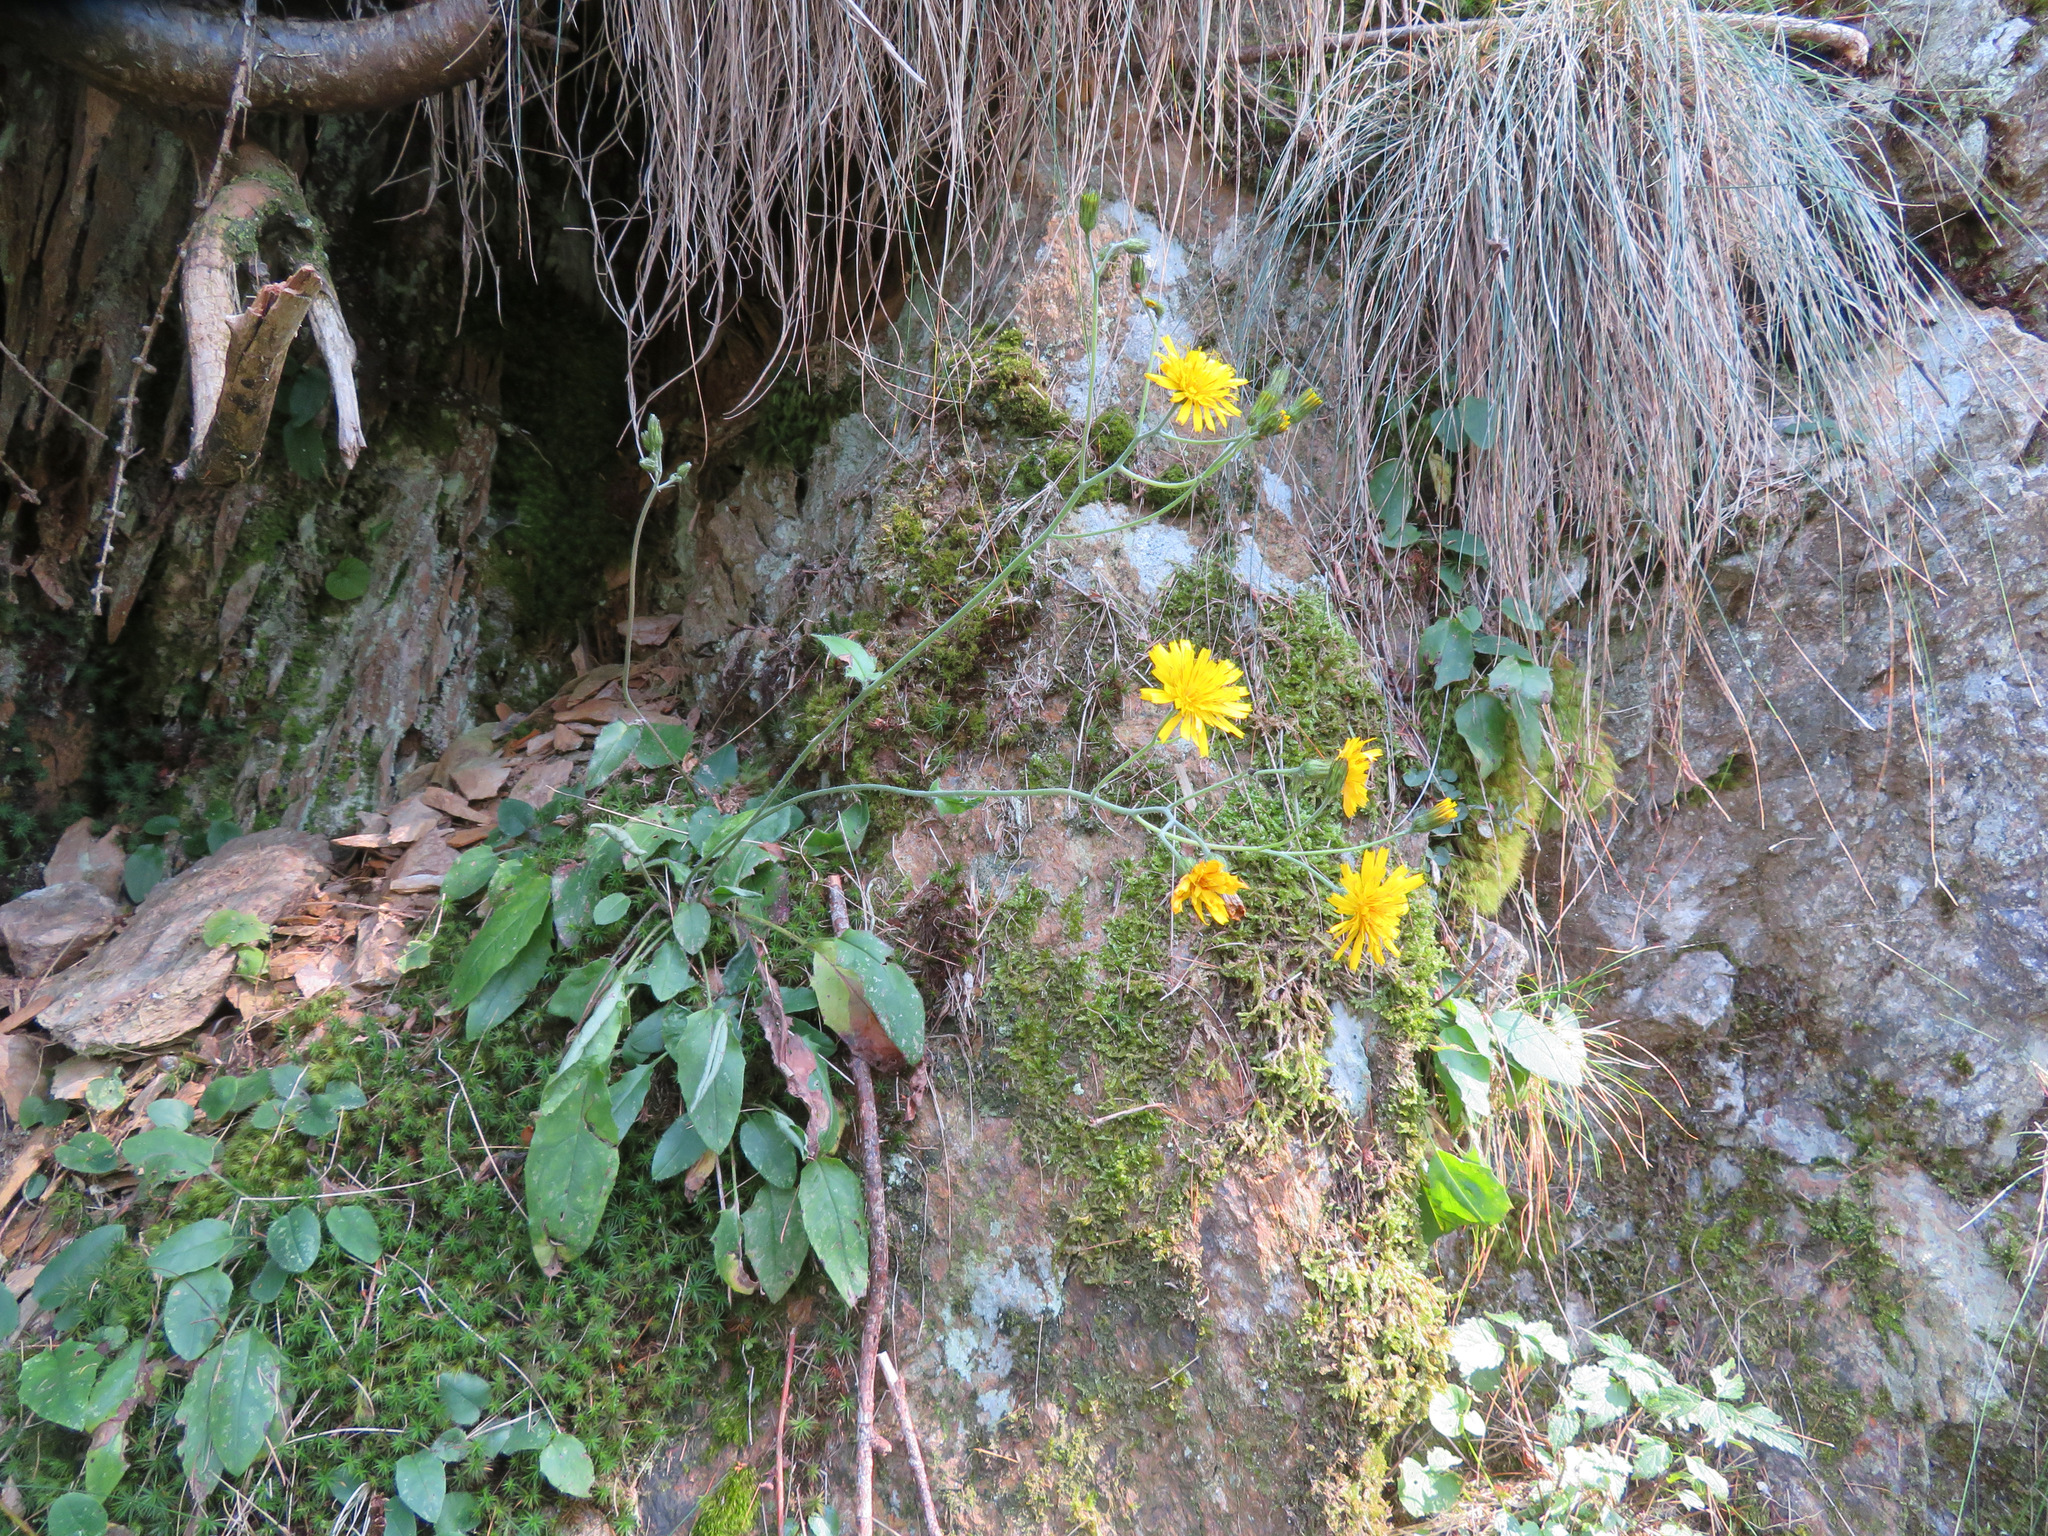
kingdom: Plantae
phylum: Tracheophyta
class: Magnoliopsida
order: Asterales
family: Asteraceae
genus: Hieracium
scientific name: Hieracium murorum
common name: Wall hawkweed
